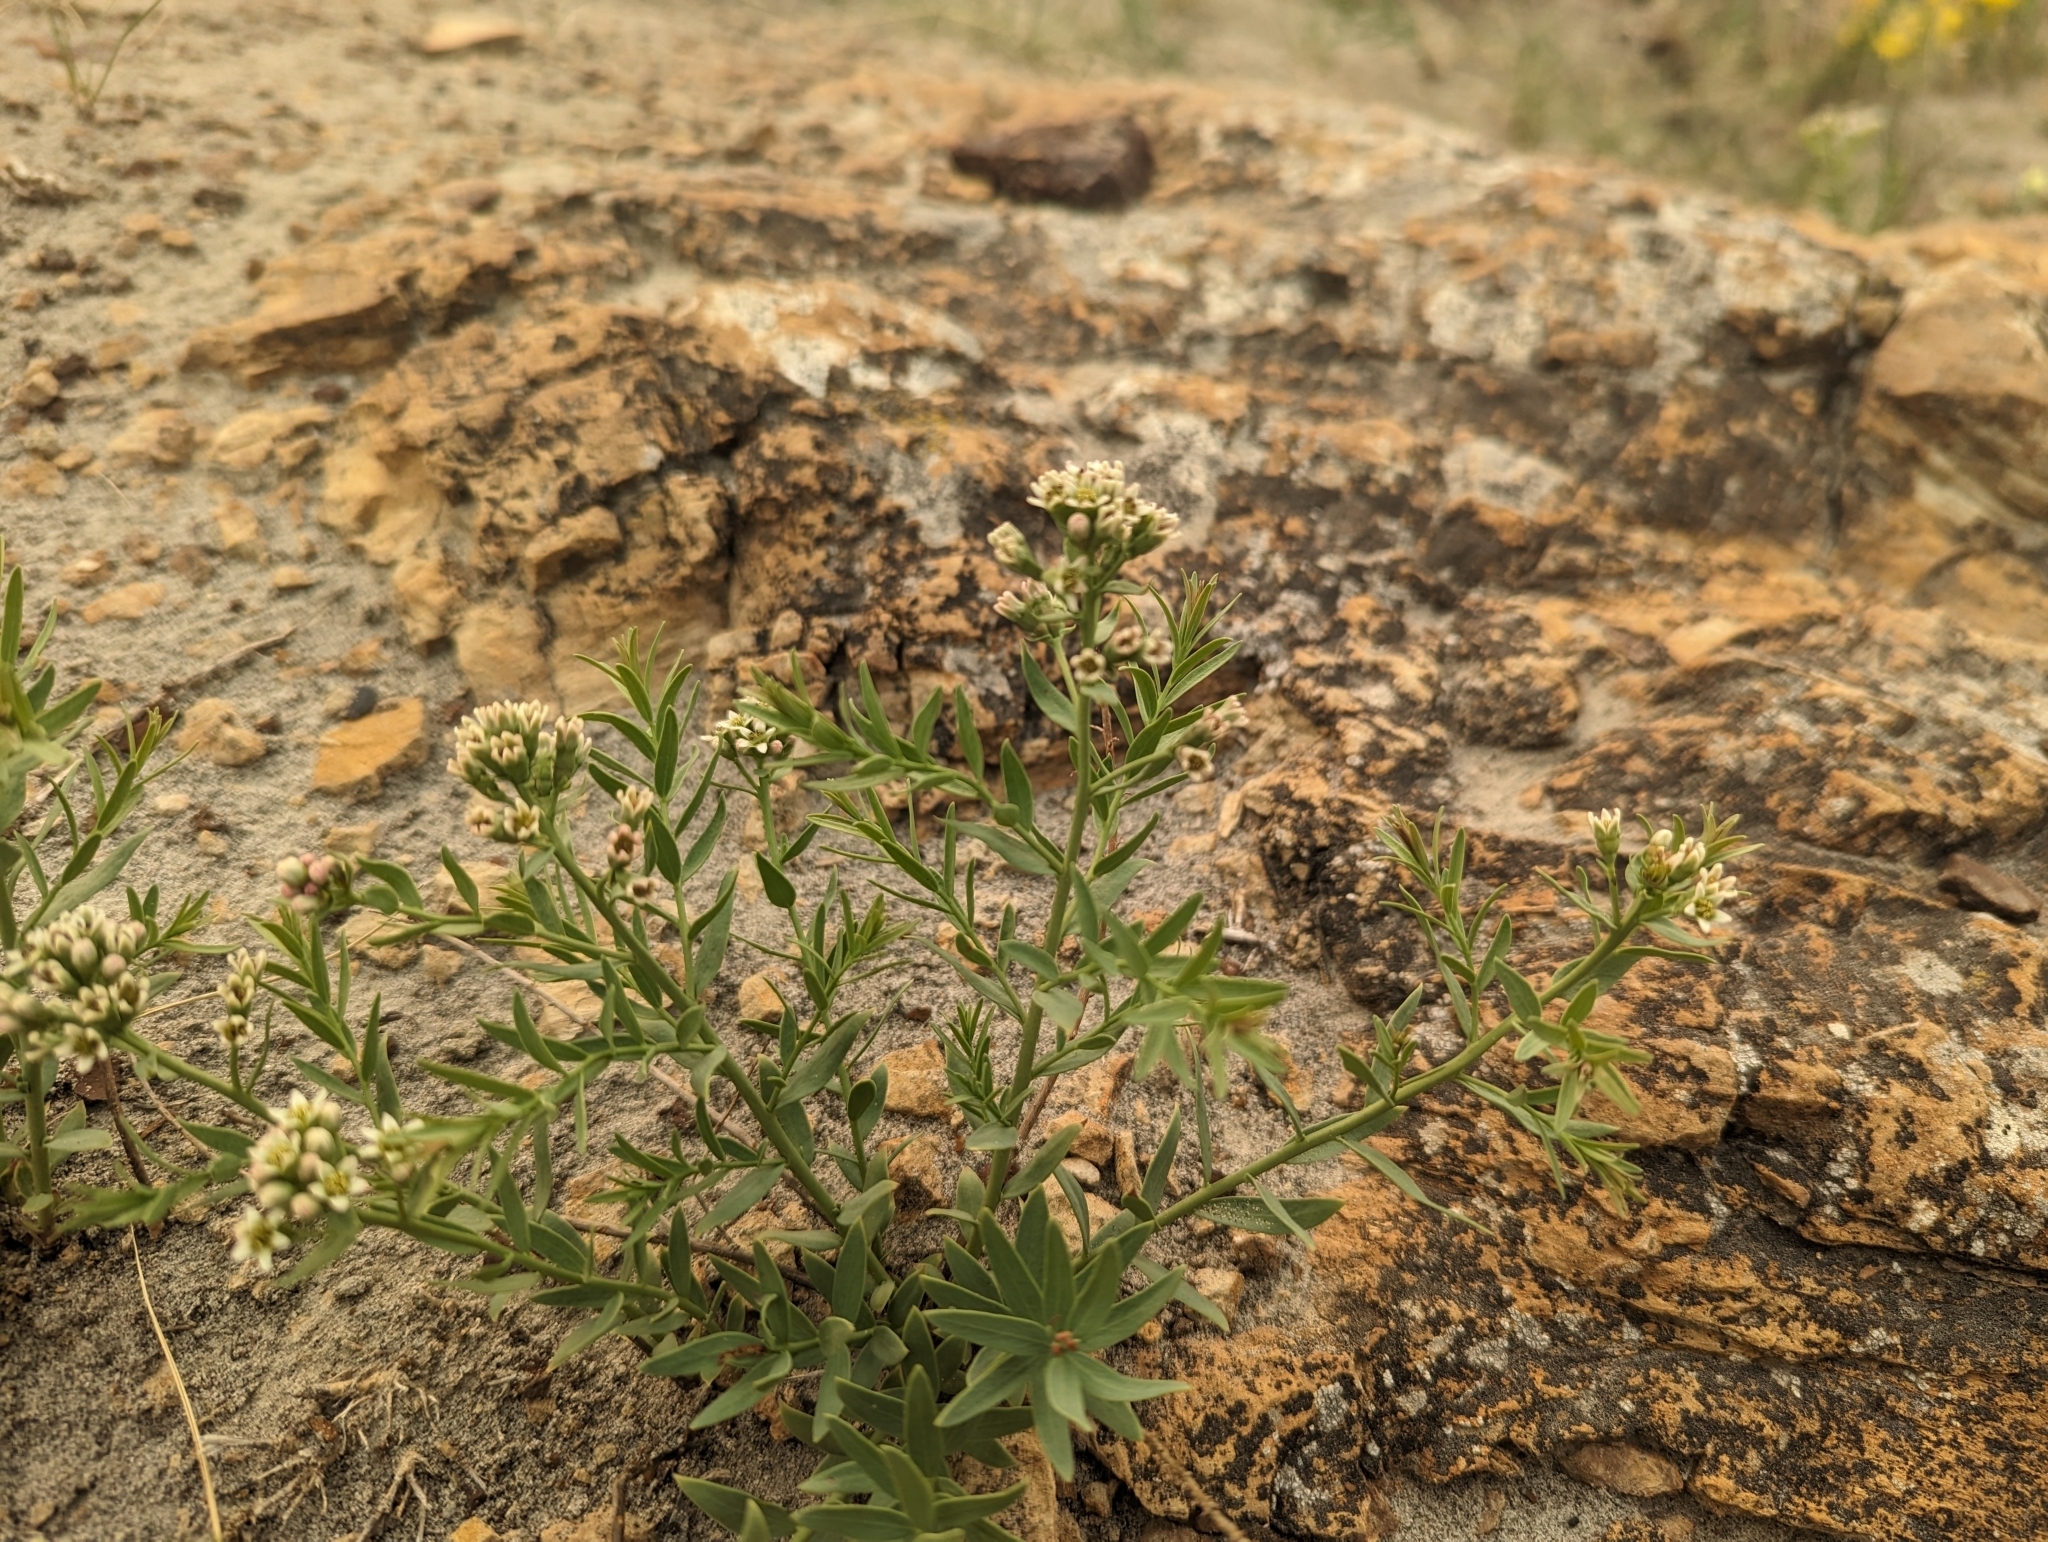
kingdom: Plantae
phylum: Tracheophyta
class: Magnoliopsida
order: Santalales
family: Comandraceae
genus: Comandra
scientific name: Comandra umbellata
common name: Bastard toadflax
